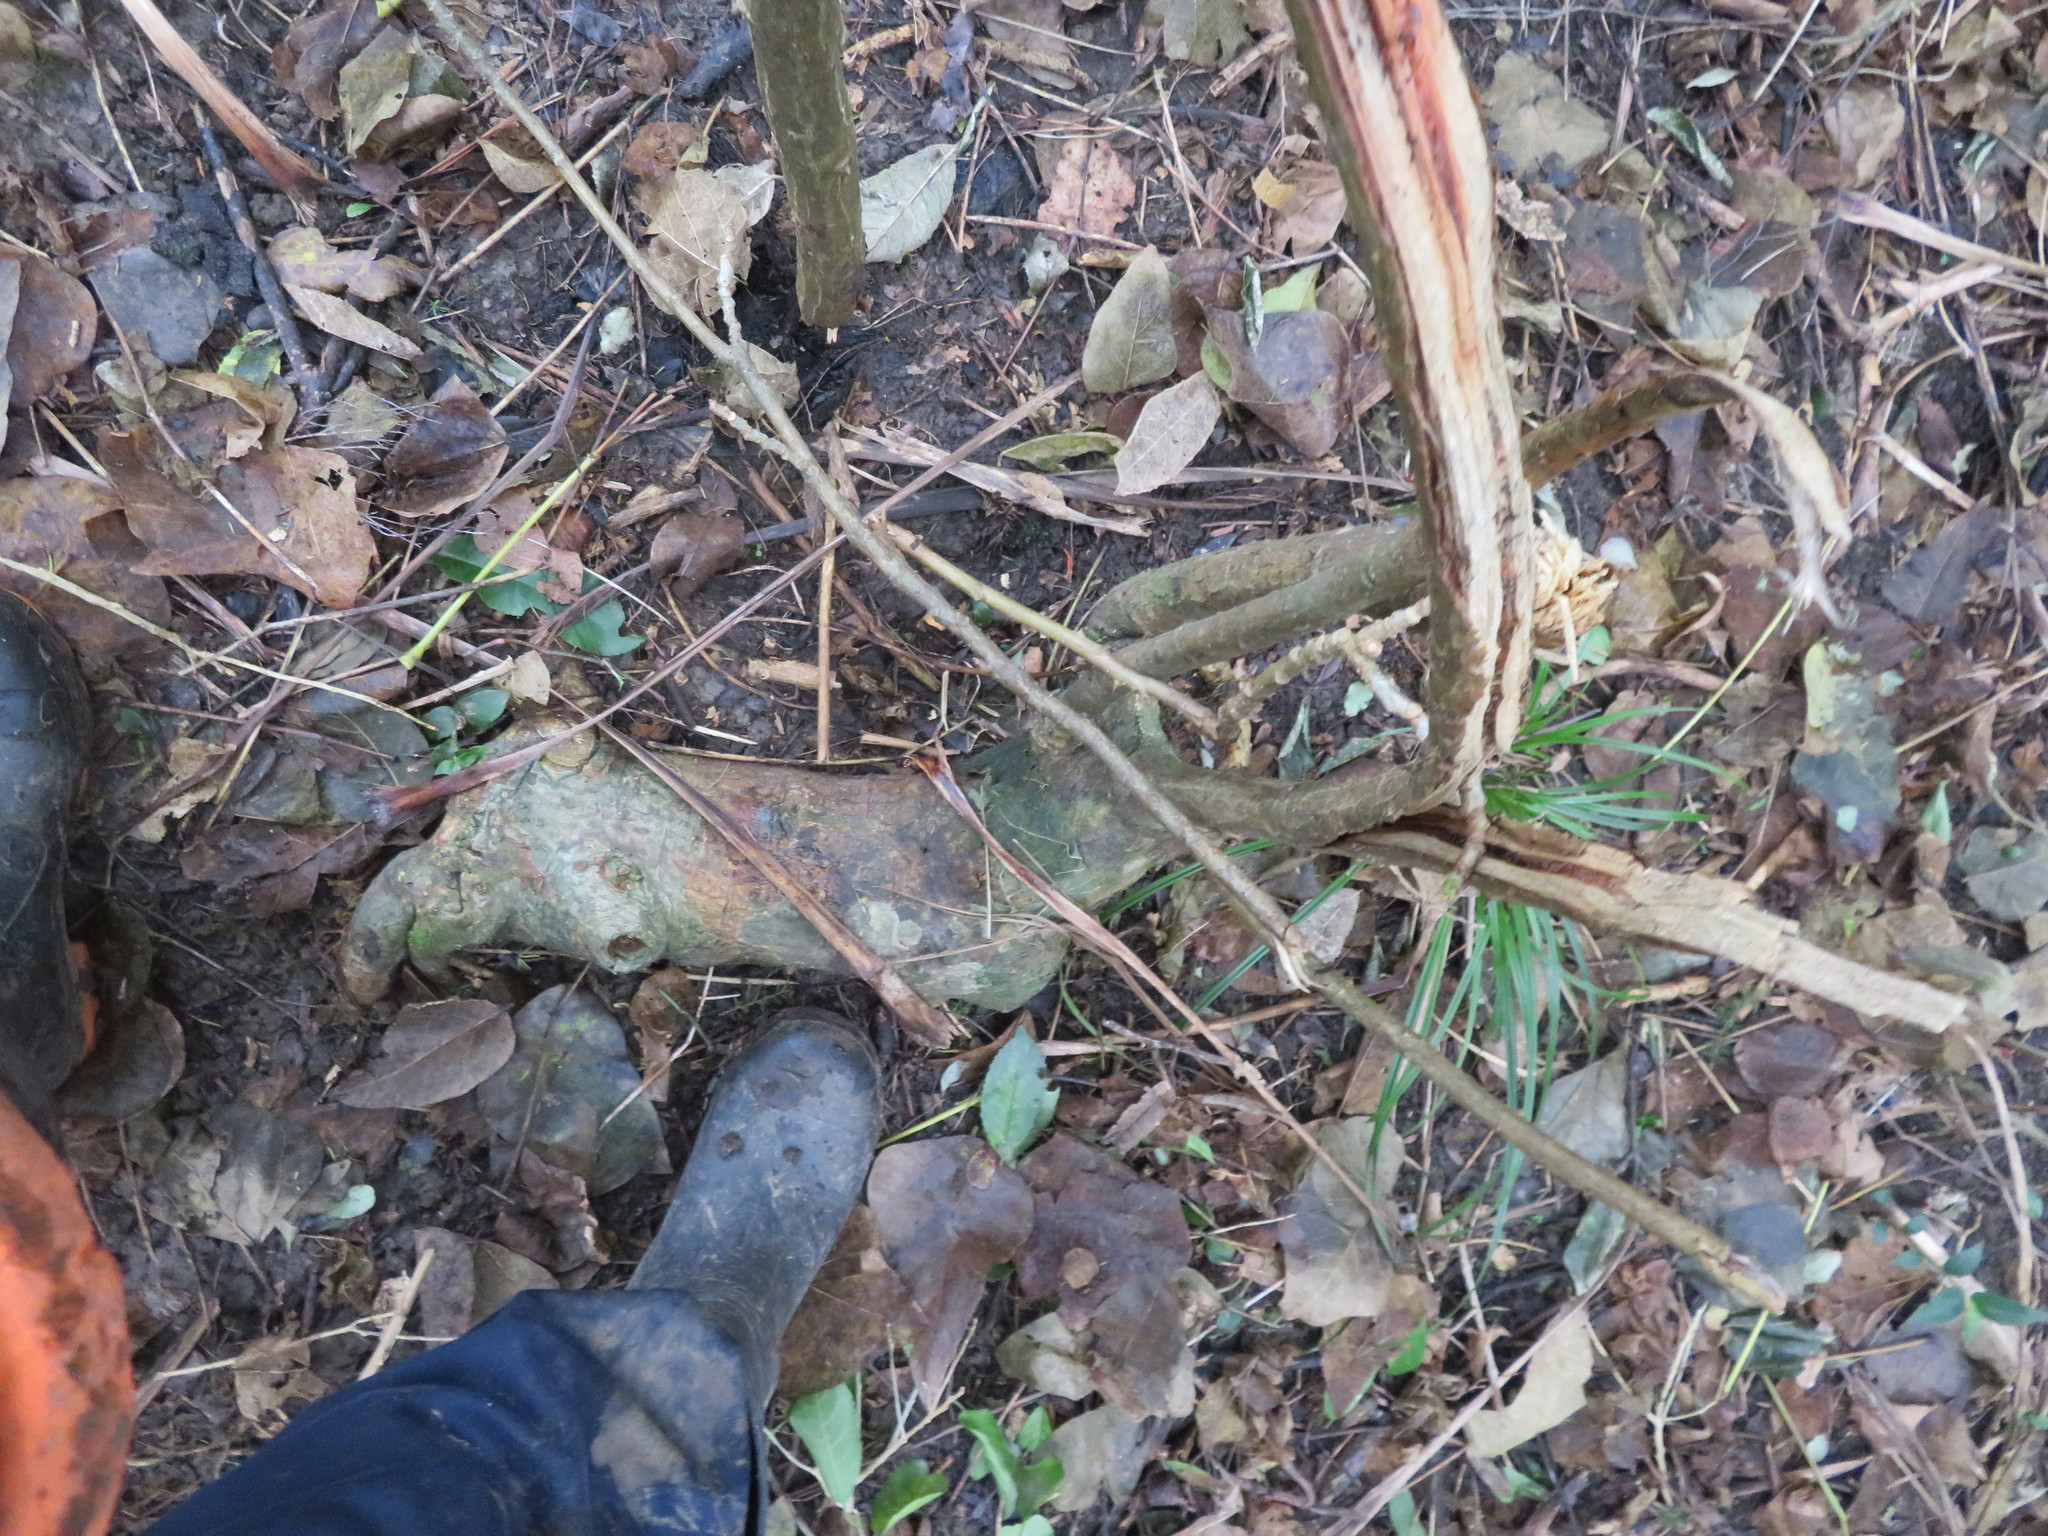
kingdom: Plantae
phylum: Tracheophyta
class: Magnoliopsida
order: Fabales
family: Fabaceae
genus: Erythrina
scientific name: Erythrina sykesii
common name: Coraltree
